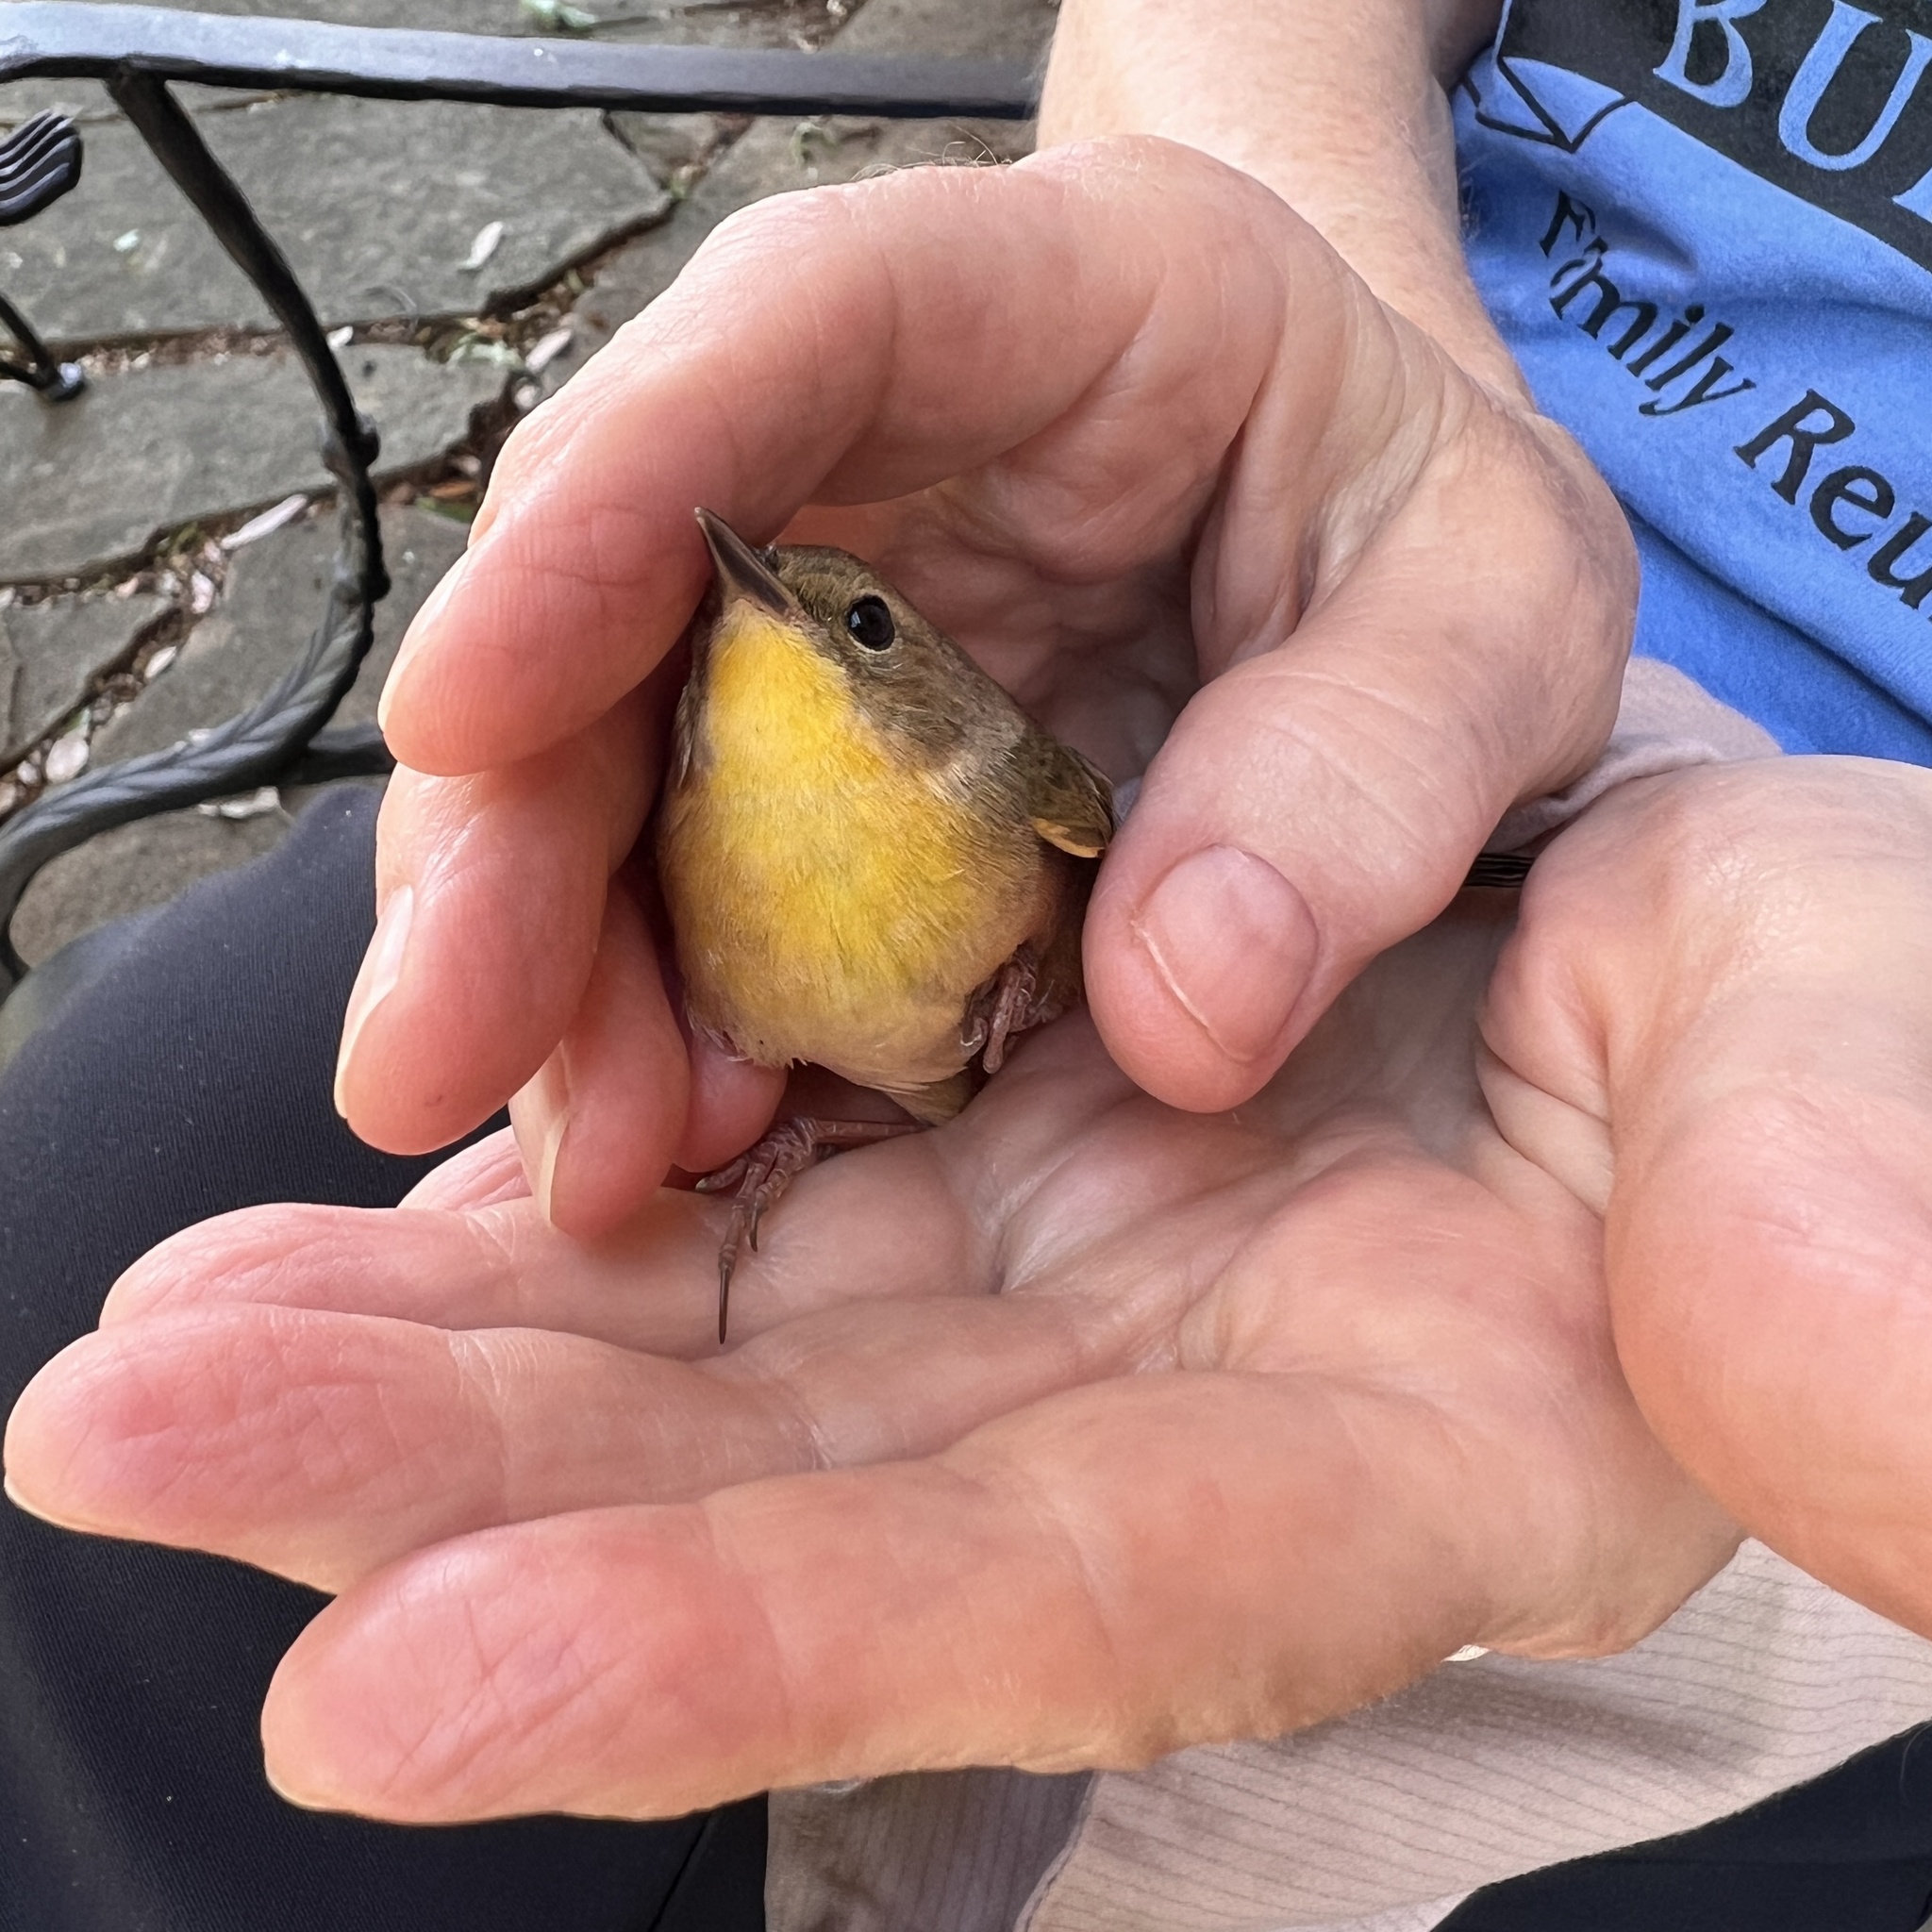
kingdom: Animalia
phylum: Chordata
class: Aves
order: Passeriformes
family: Parulidae
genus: Geothlypis
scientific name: Geothlypis trichas
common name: Common yellowthroat
